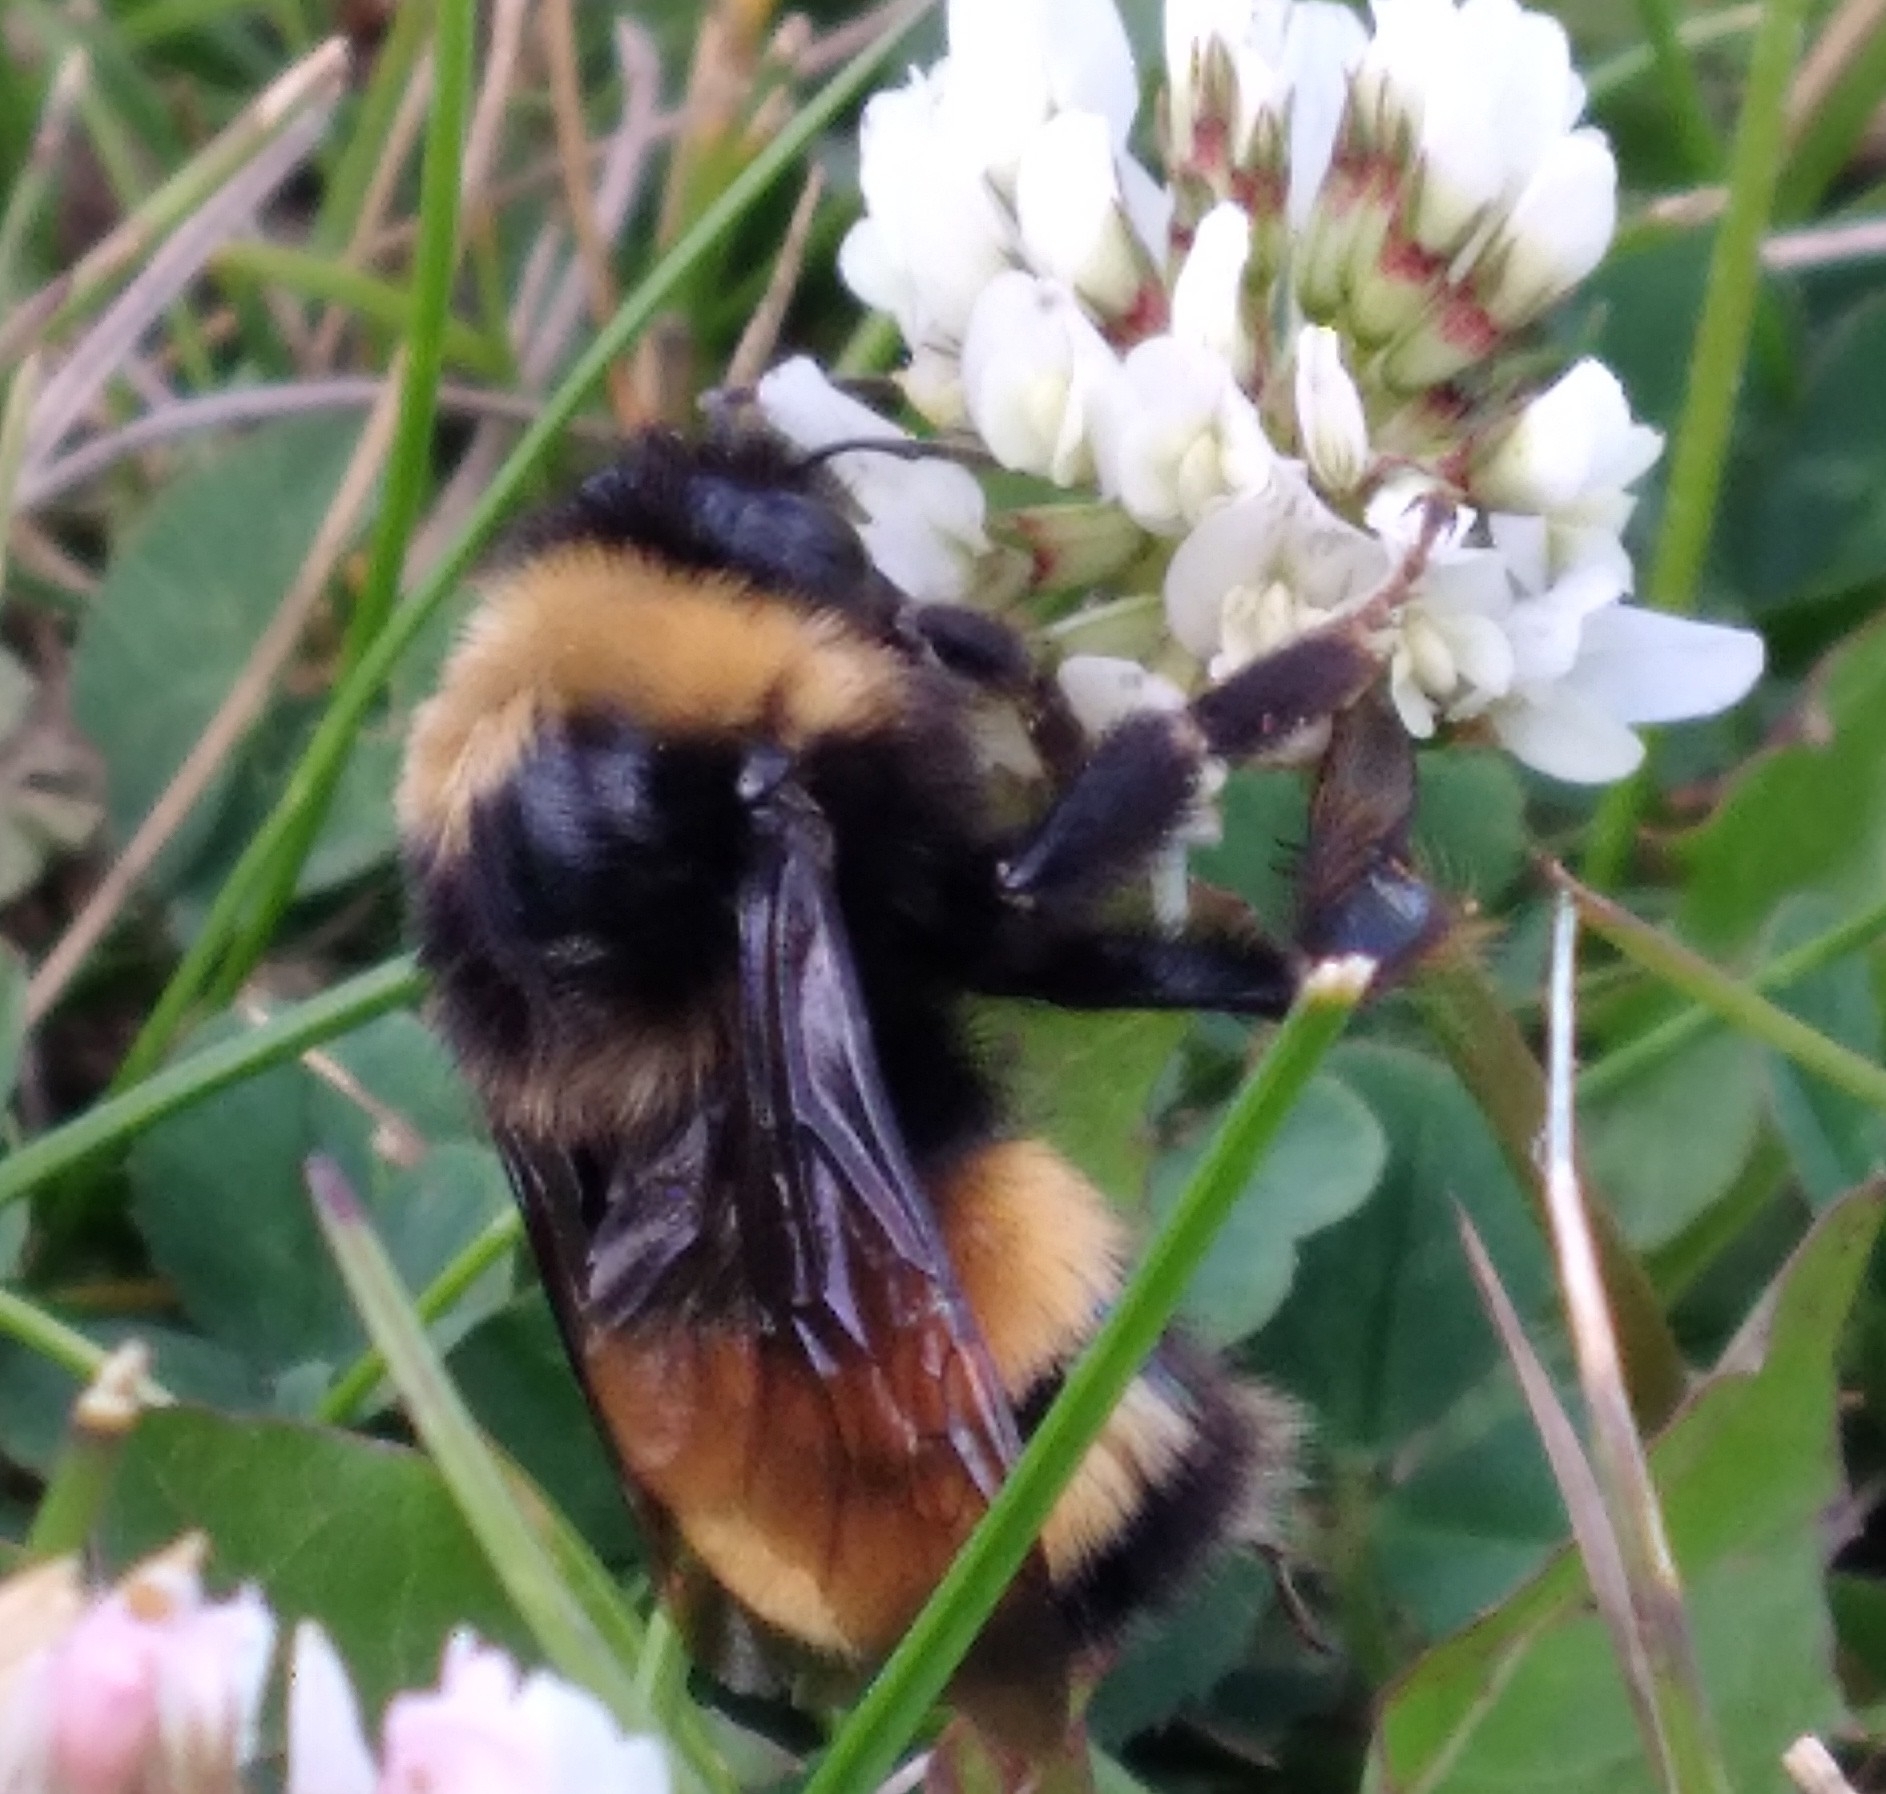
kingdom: Animalia
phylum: Arthropoda
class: Insecta
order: Hymenoptera
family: Apidae
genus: Bombus
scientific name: Bombus terricola
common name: Yellow-banded bumble bee
